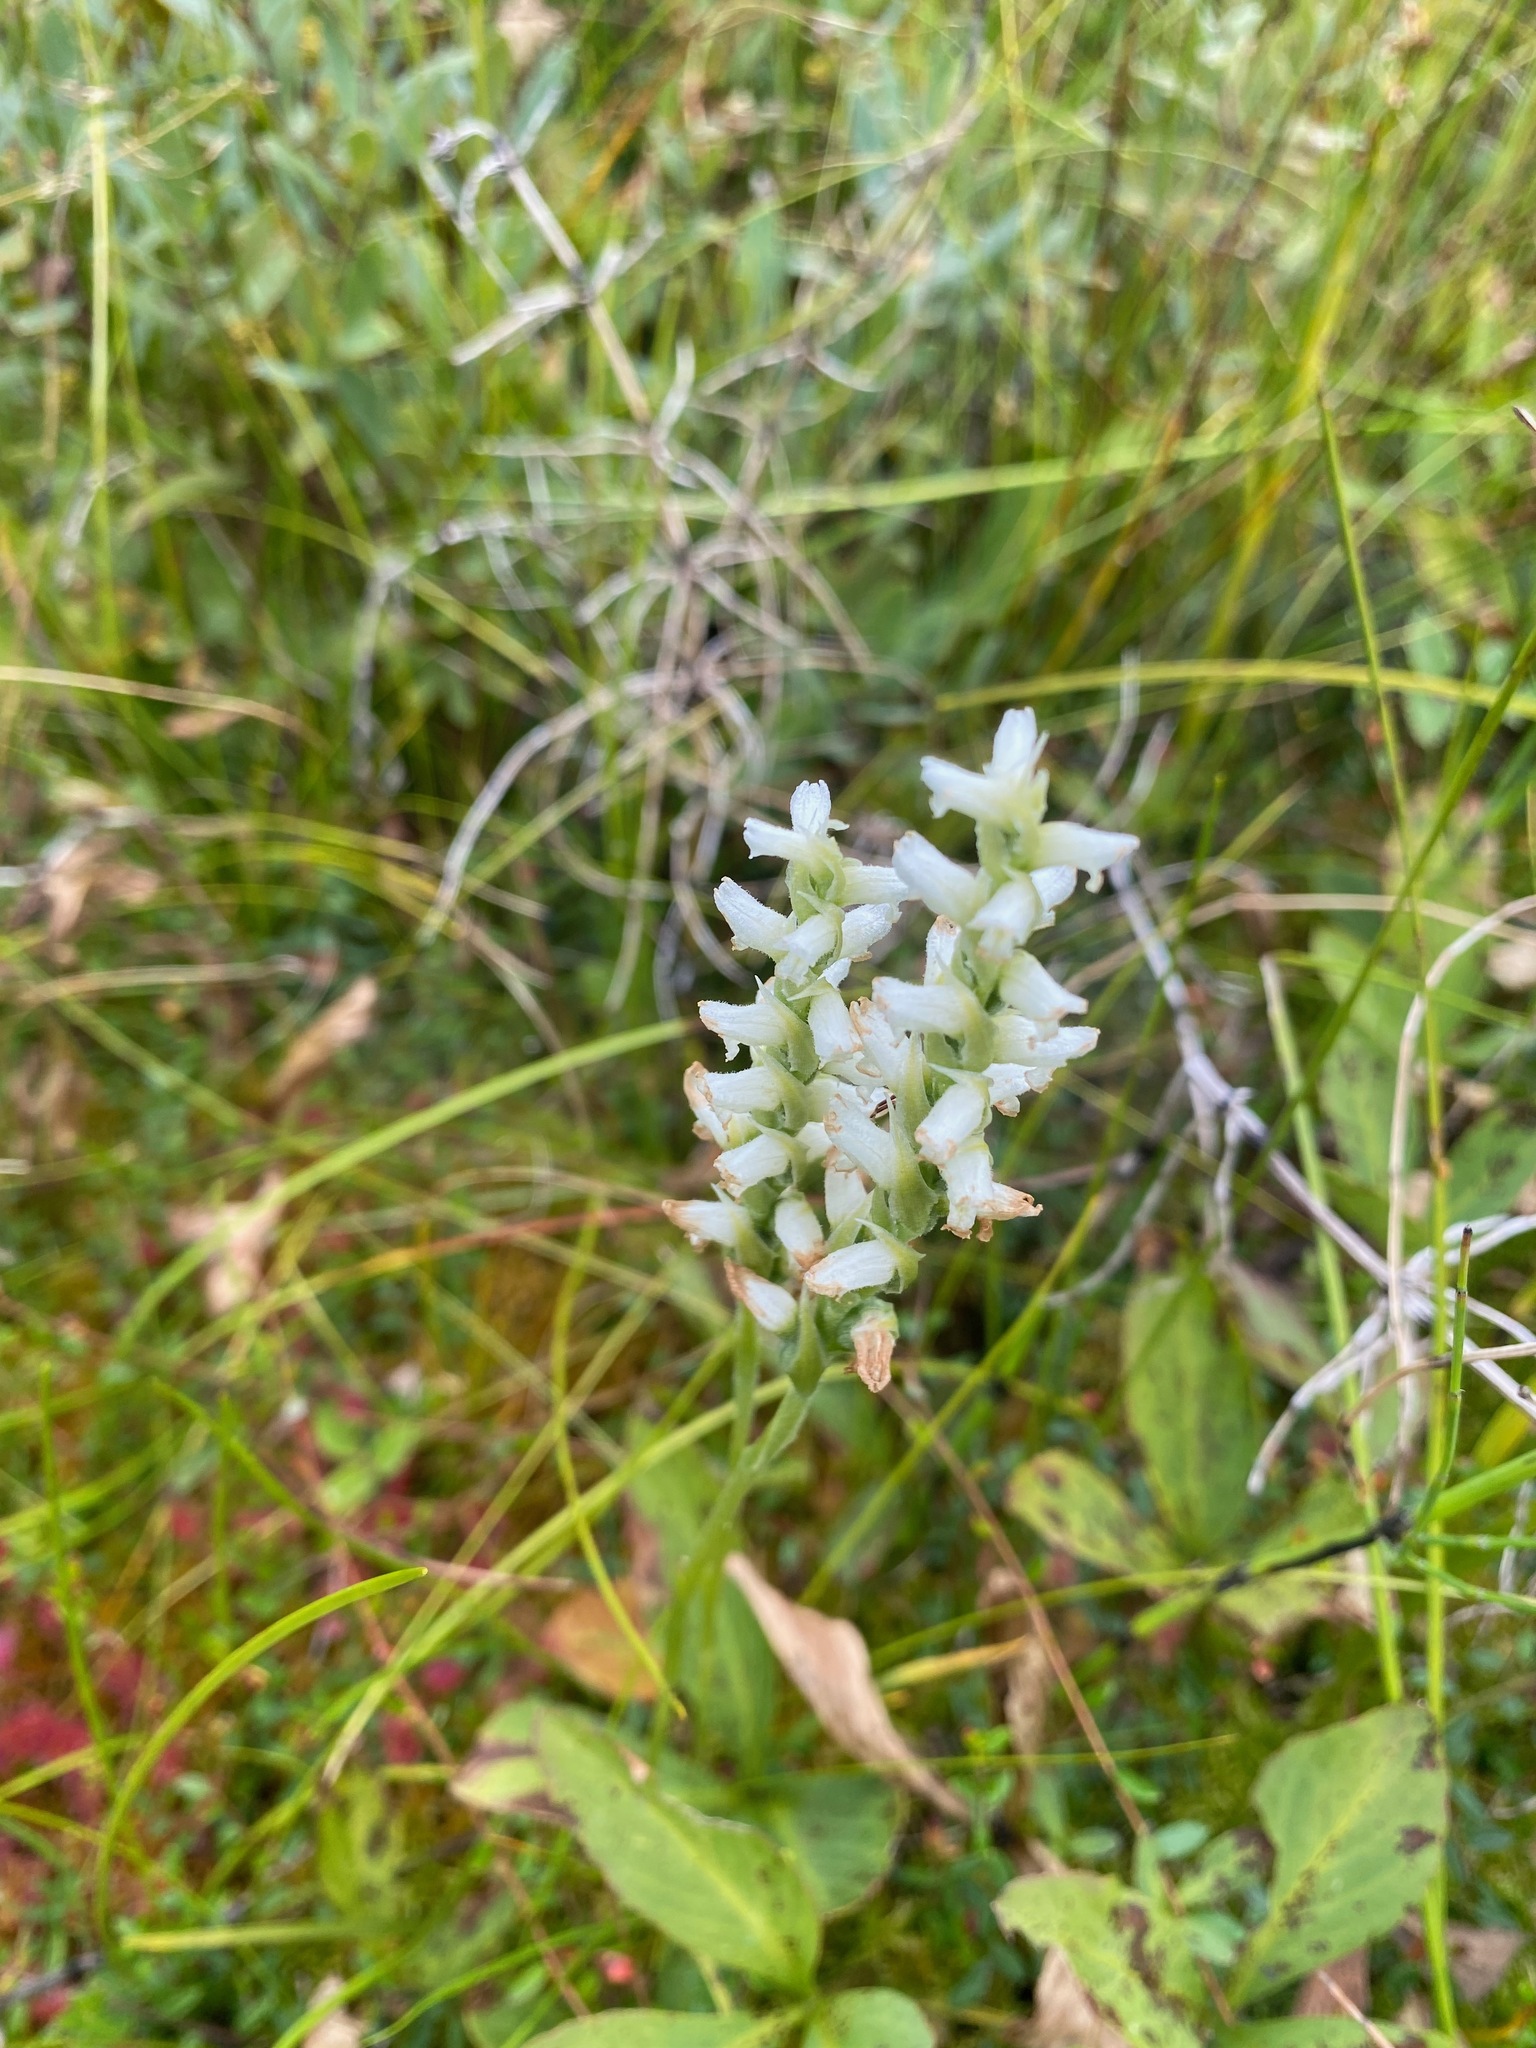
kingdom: Plantae
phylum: Tracheophyta
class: Liliopsida
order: Asparagales
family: Orchidaceae
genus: Spiranthes
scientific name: Spiranthes romanzoffiana
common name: Irish lady's-tresses
